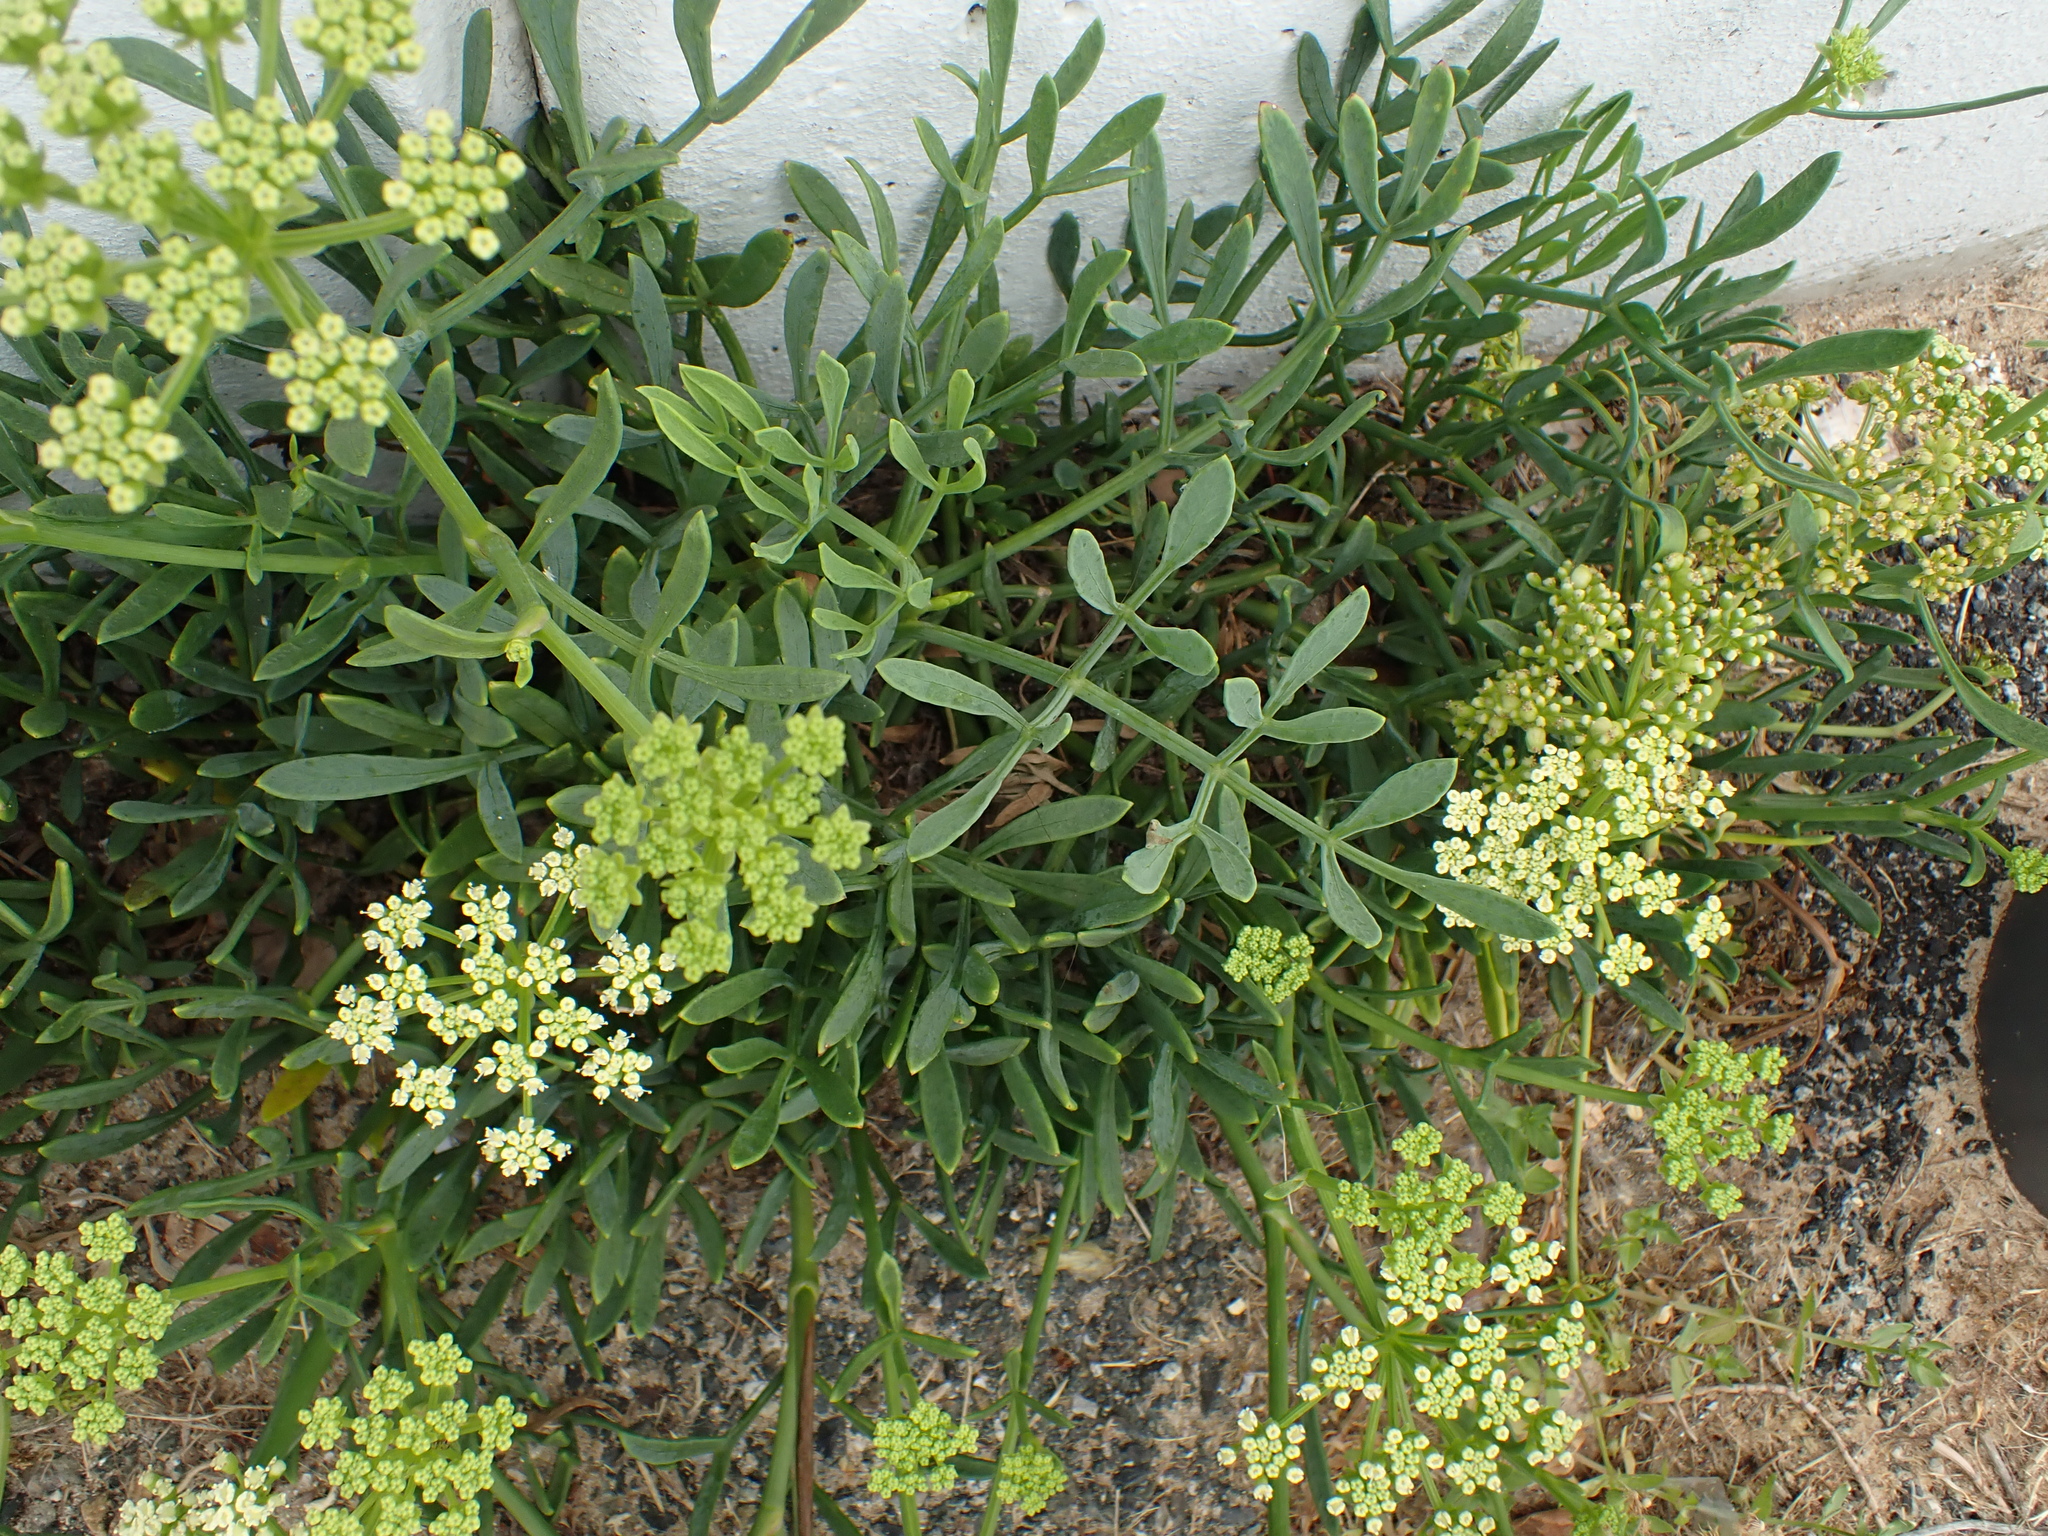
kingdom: Plantae
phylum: Tracheophyta
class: Magnoliopsida
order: Apiales
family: Apiaceae
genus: Crithmum
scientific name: Crithmum maritimum
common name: Rock samphire
